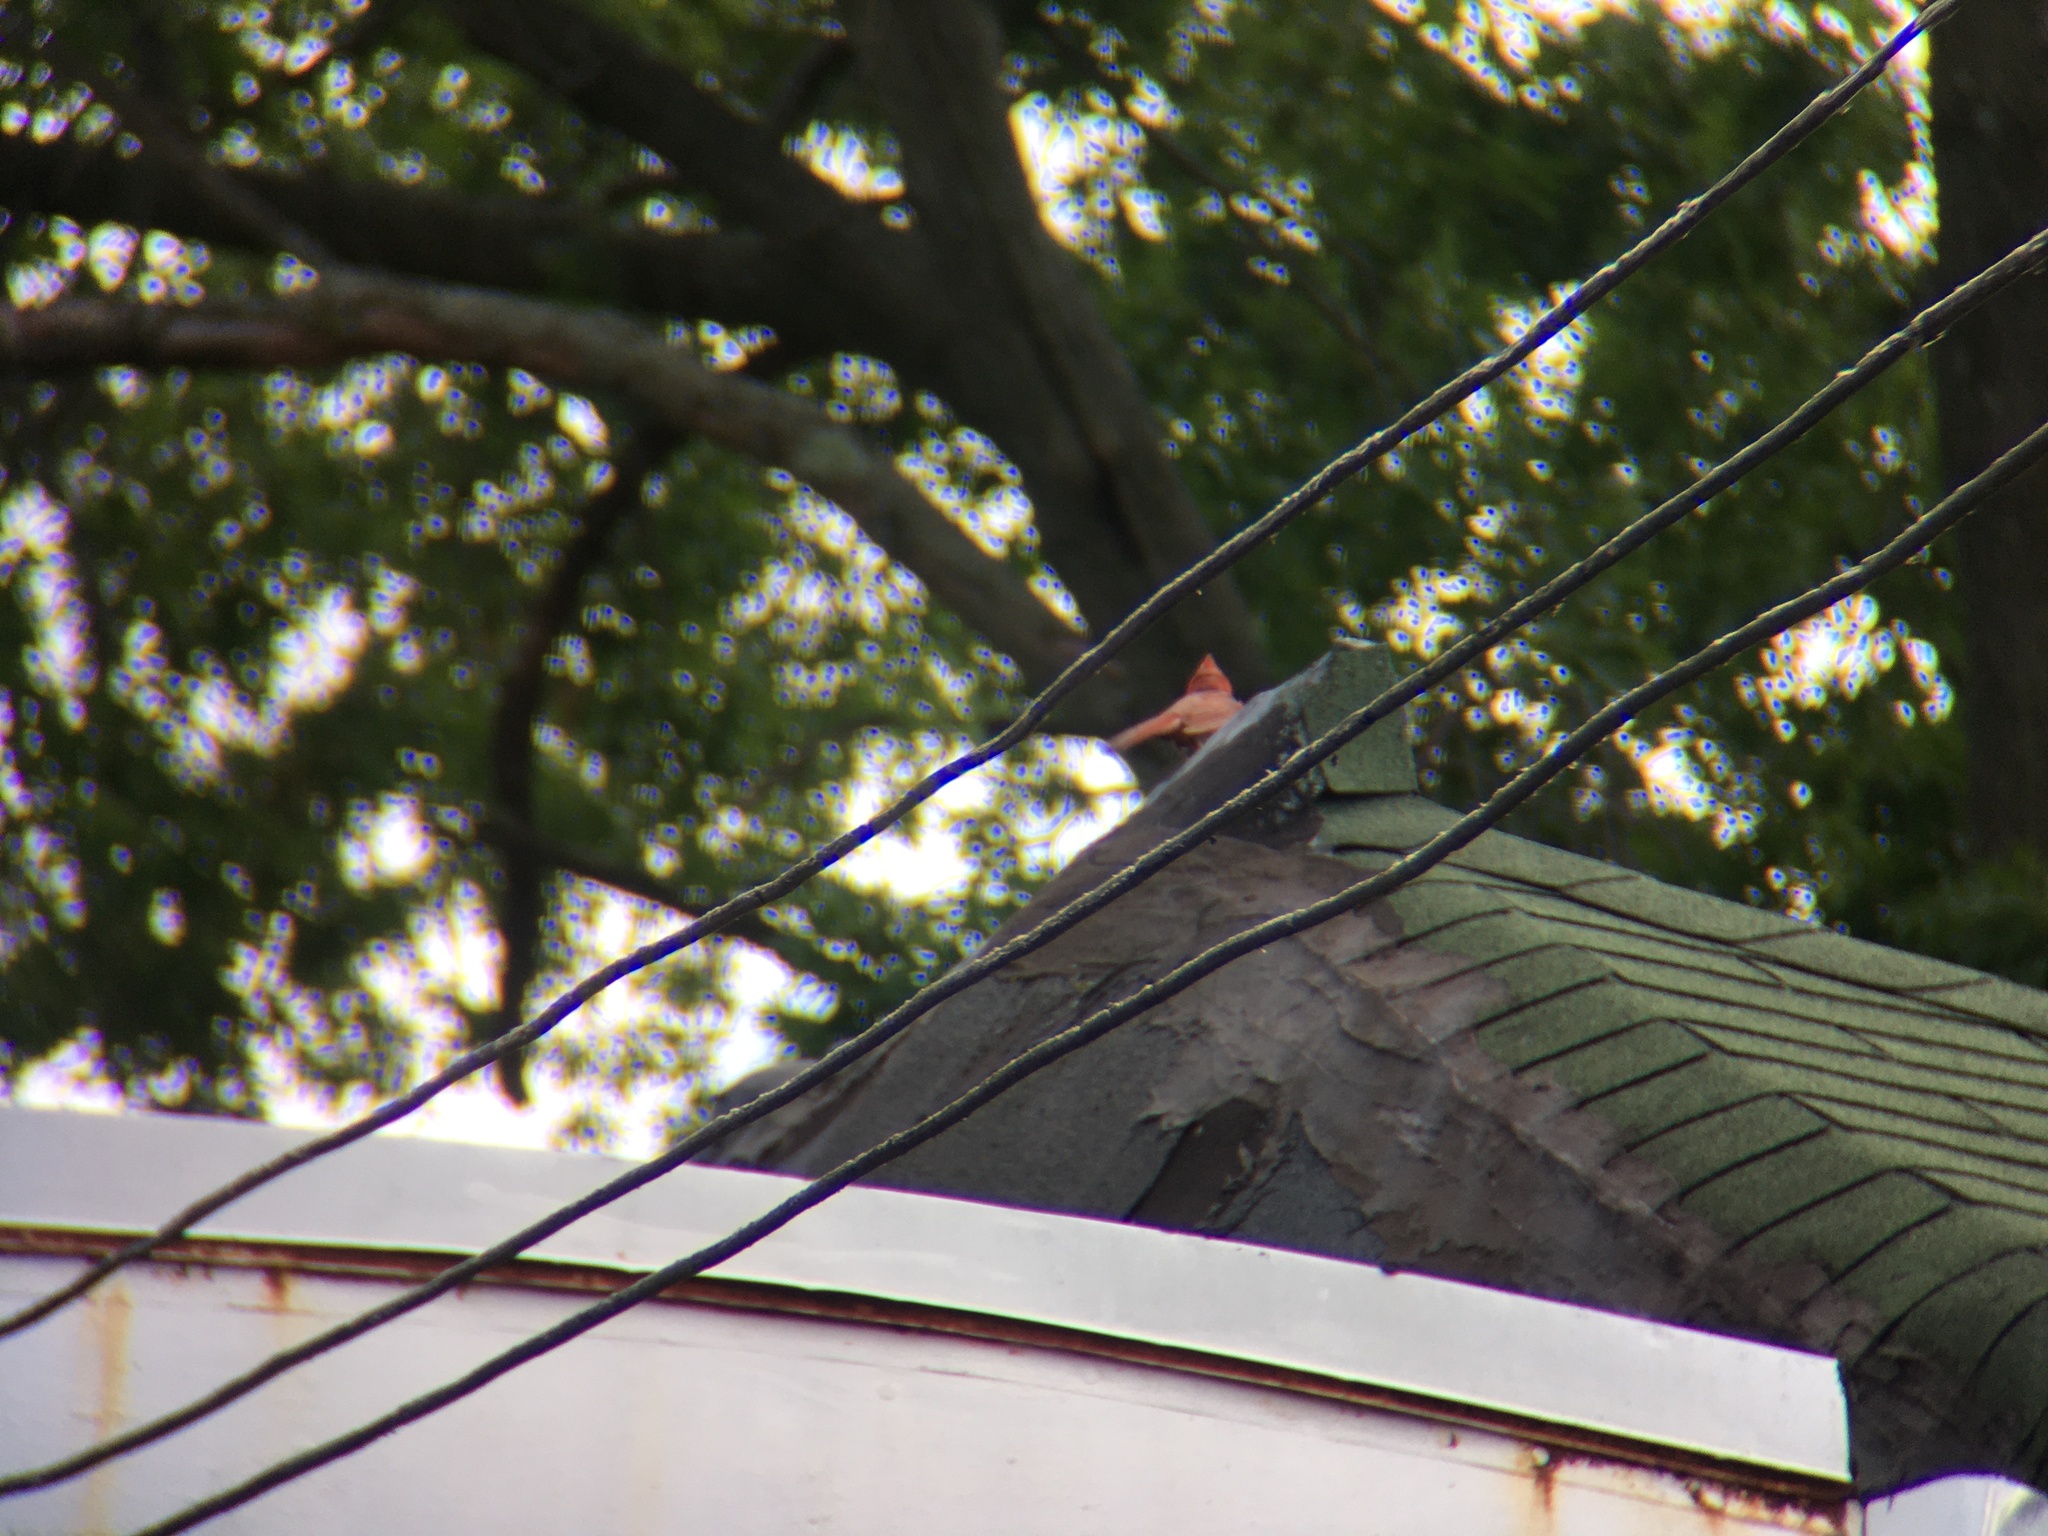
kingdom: Animalia
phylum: Chordata
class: Aves
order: Passeriformes
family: Cardinalidae
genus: Cardinalis
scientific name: Cardinalis cardinalis
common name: Northern cardinal
